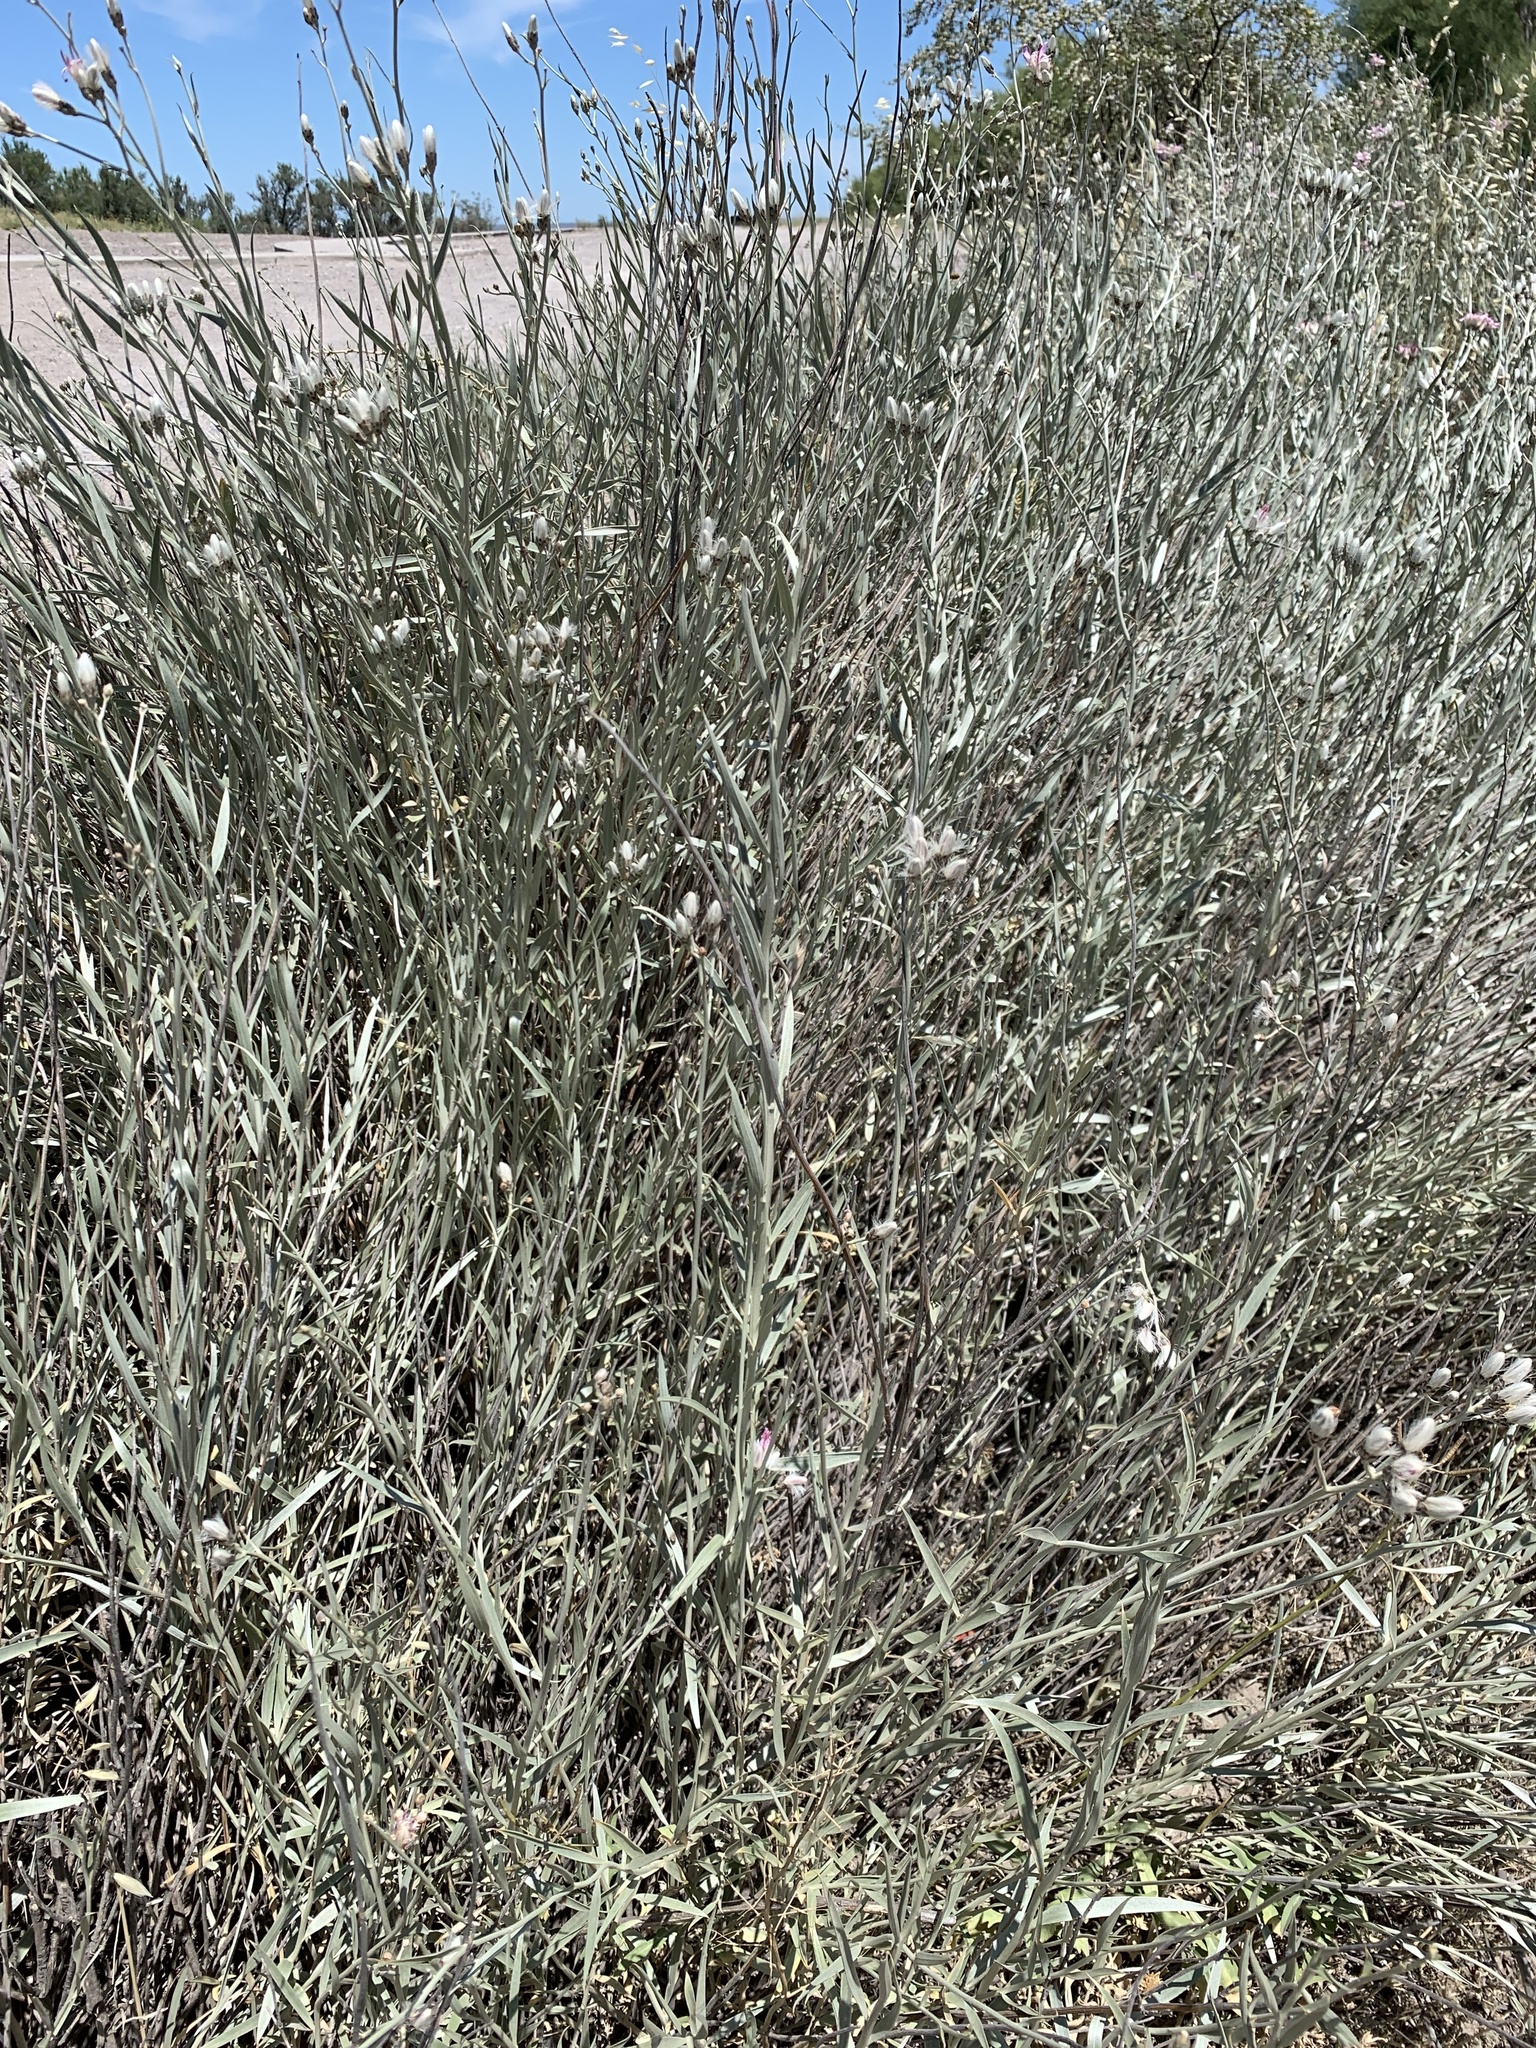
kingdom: Plantae
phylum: Tracheophyta
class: Magnoliopsida
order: Asterales
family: Asteraceae
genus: Hyalis
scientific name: Hyalis argentea
